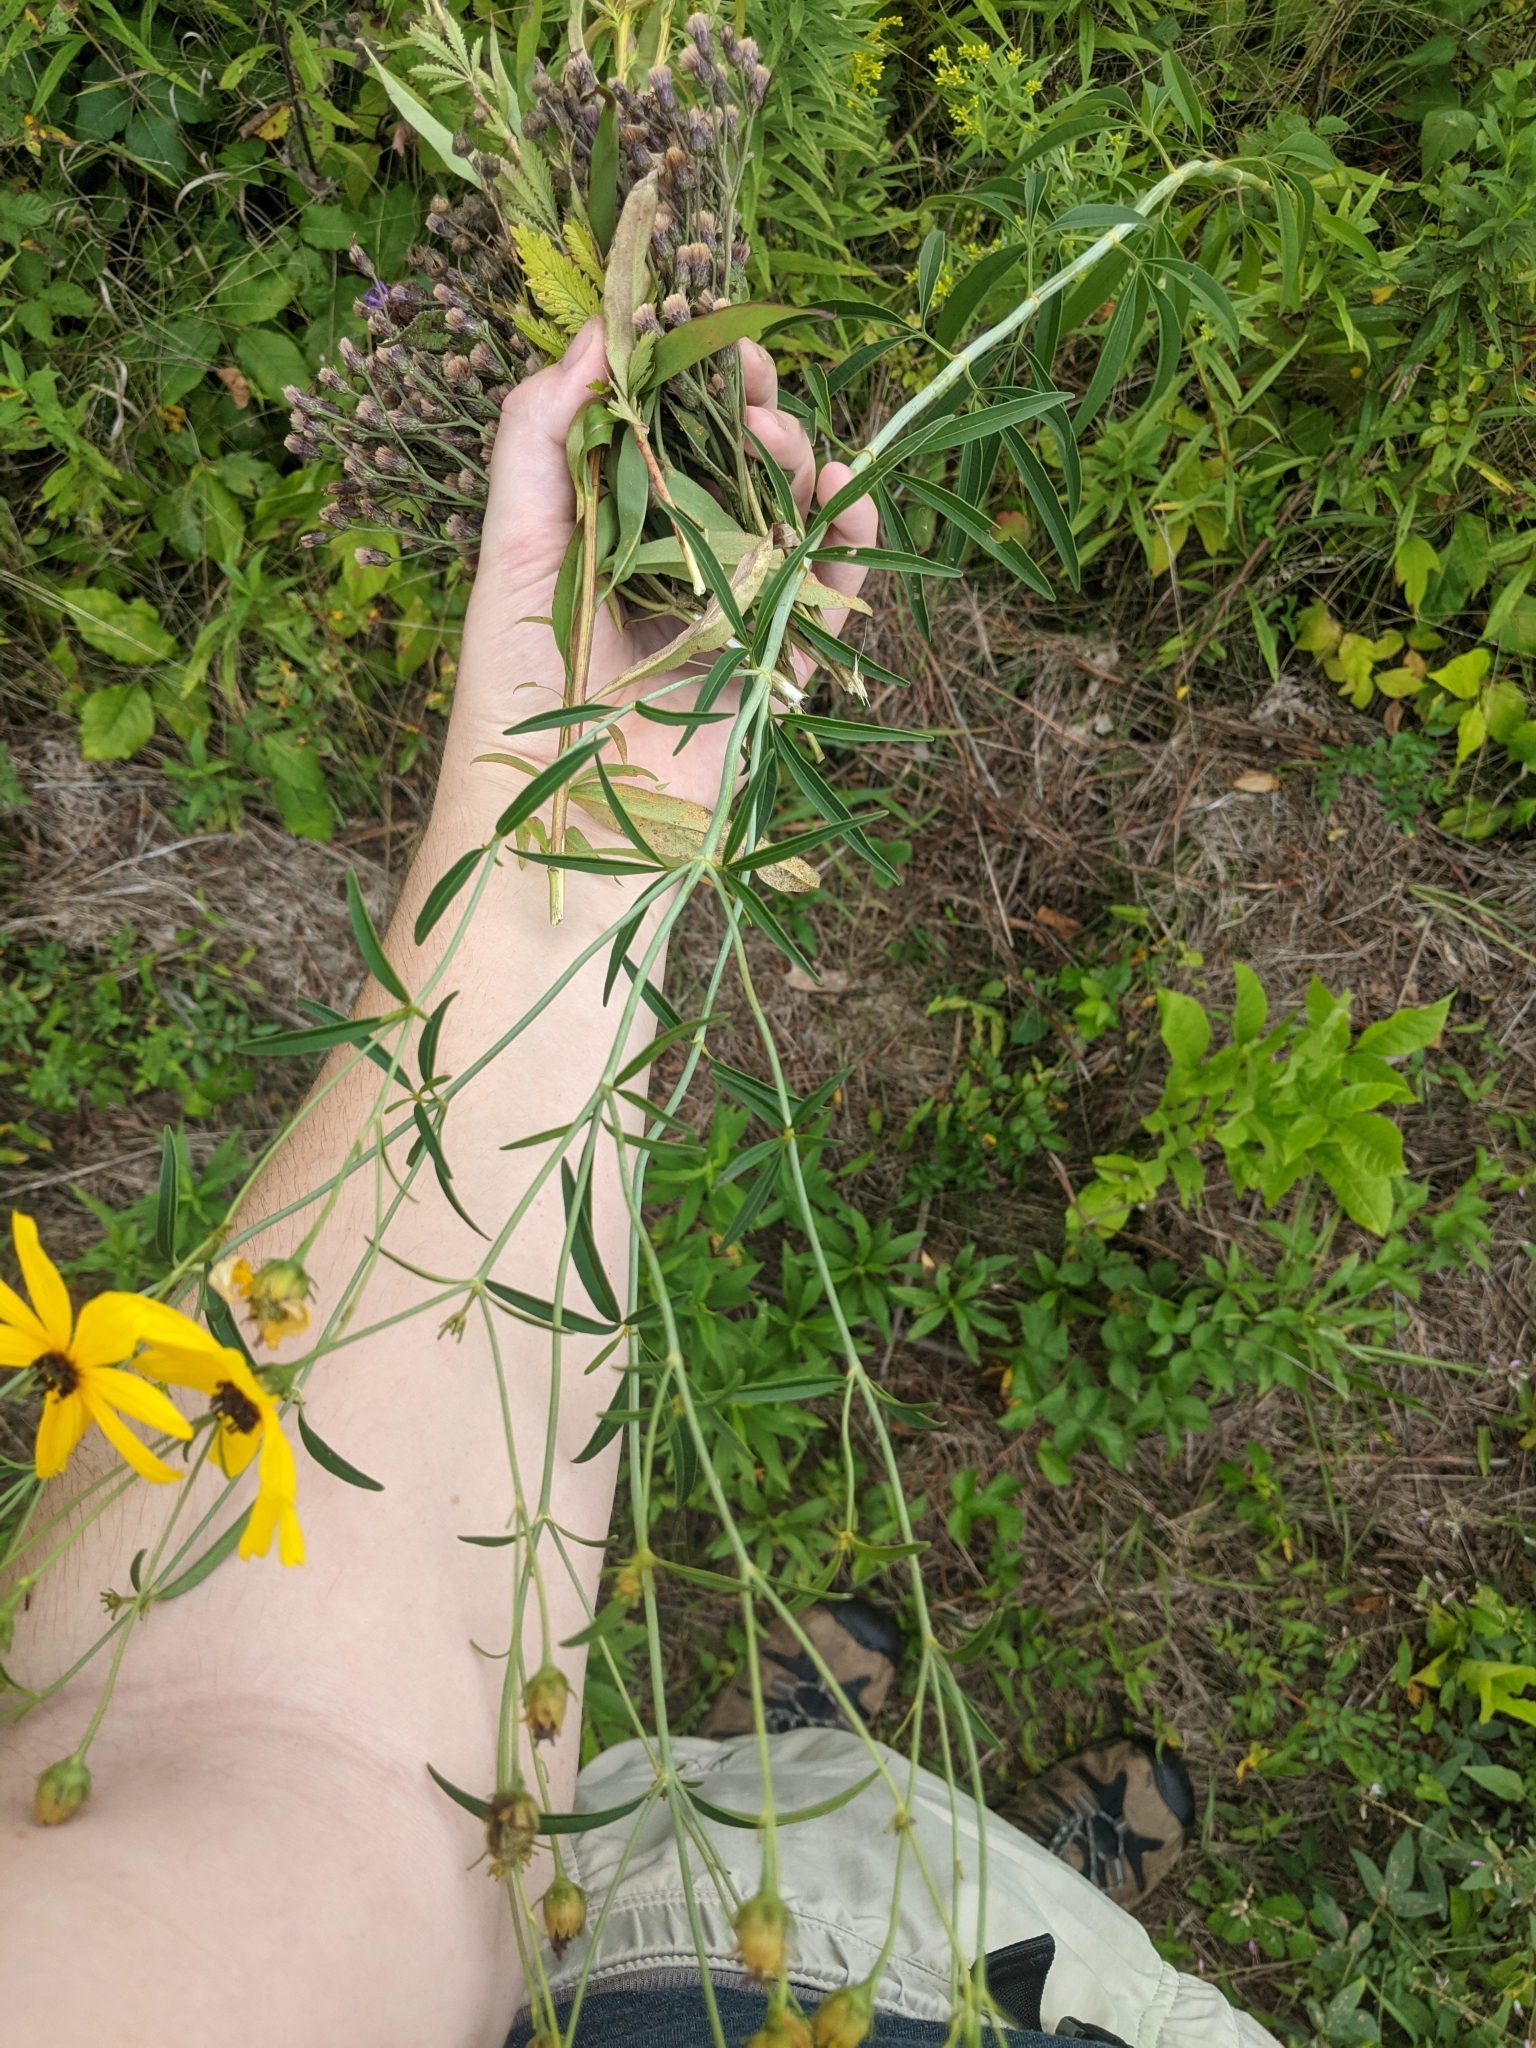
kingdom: Plantae
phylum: Tracheophyta
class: Magnoliopsida
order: Asterales
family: Asteraceae
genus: Coreopsis
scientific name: Coreopsis tripteris
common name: Tall coreopsis
